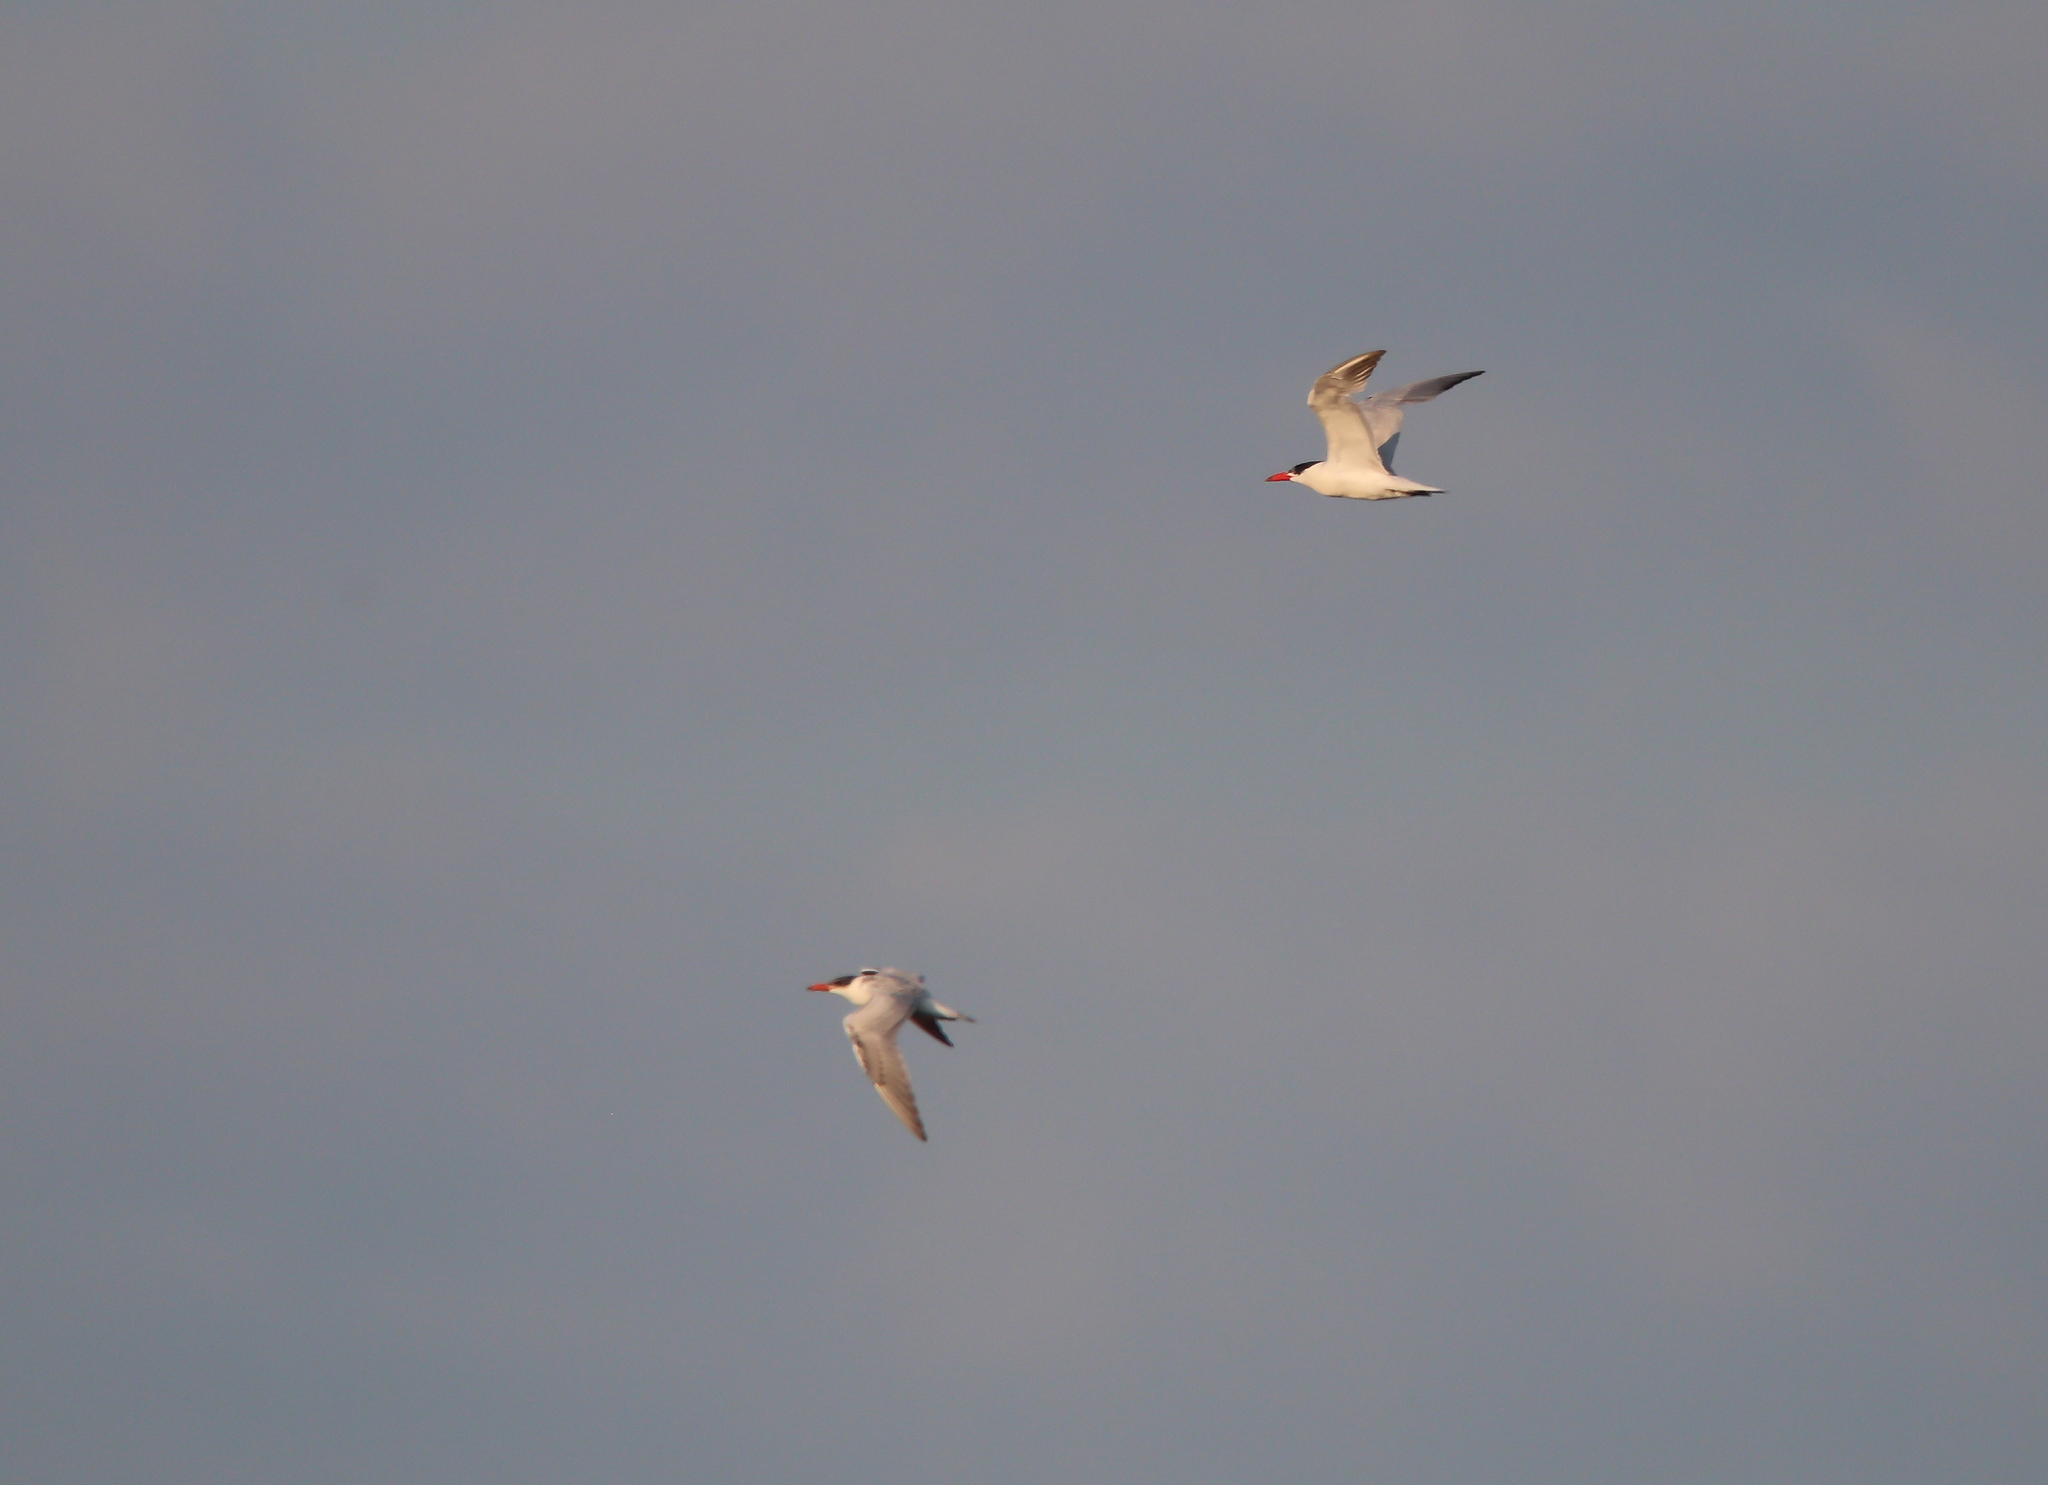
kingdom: Animalia
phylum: Chordata
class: Aves
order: Charadriiformes
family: Laridae
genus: Hydroprogne
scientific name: Hydroprogne caspia
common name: Caspian tern
